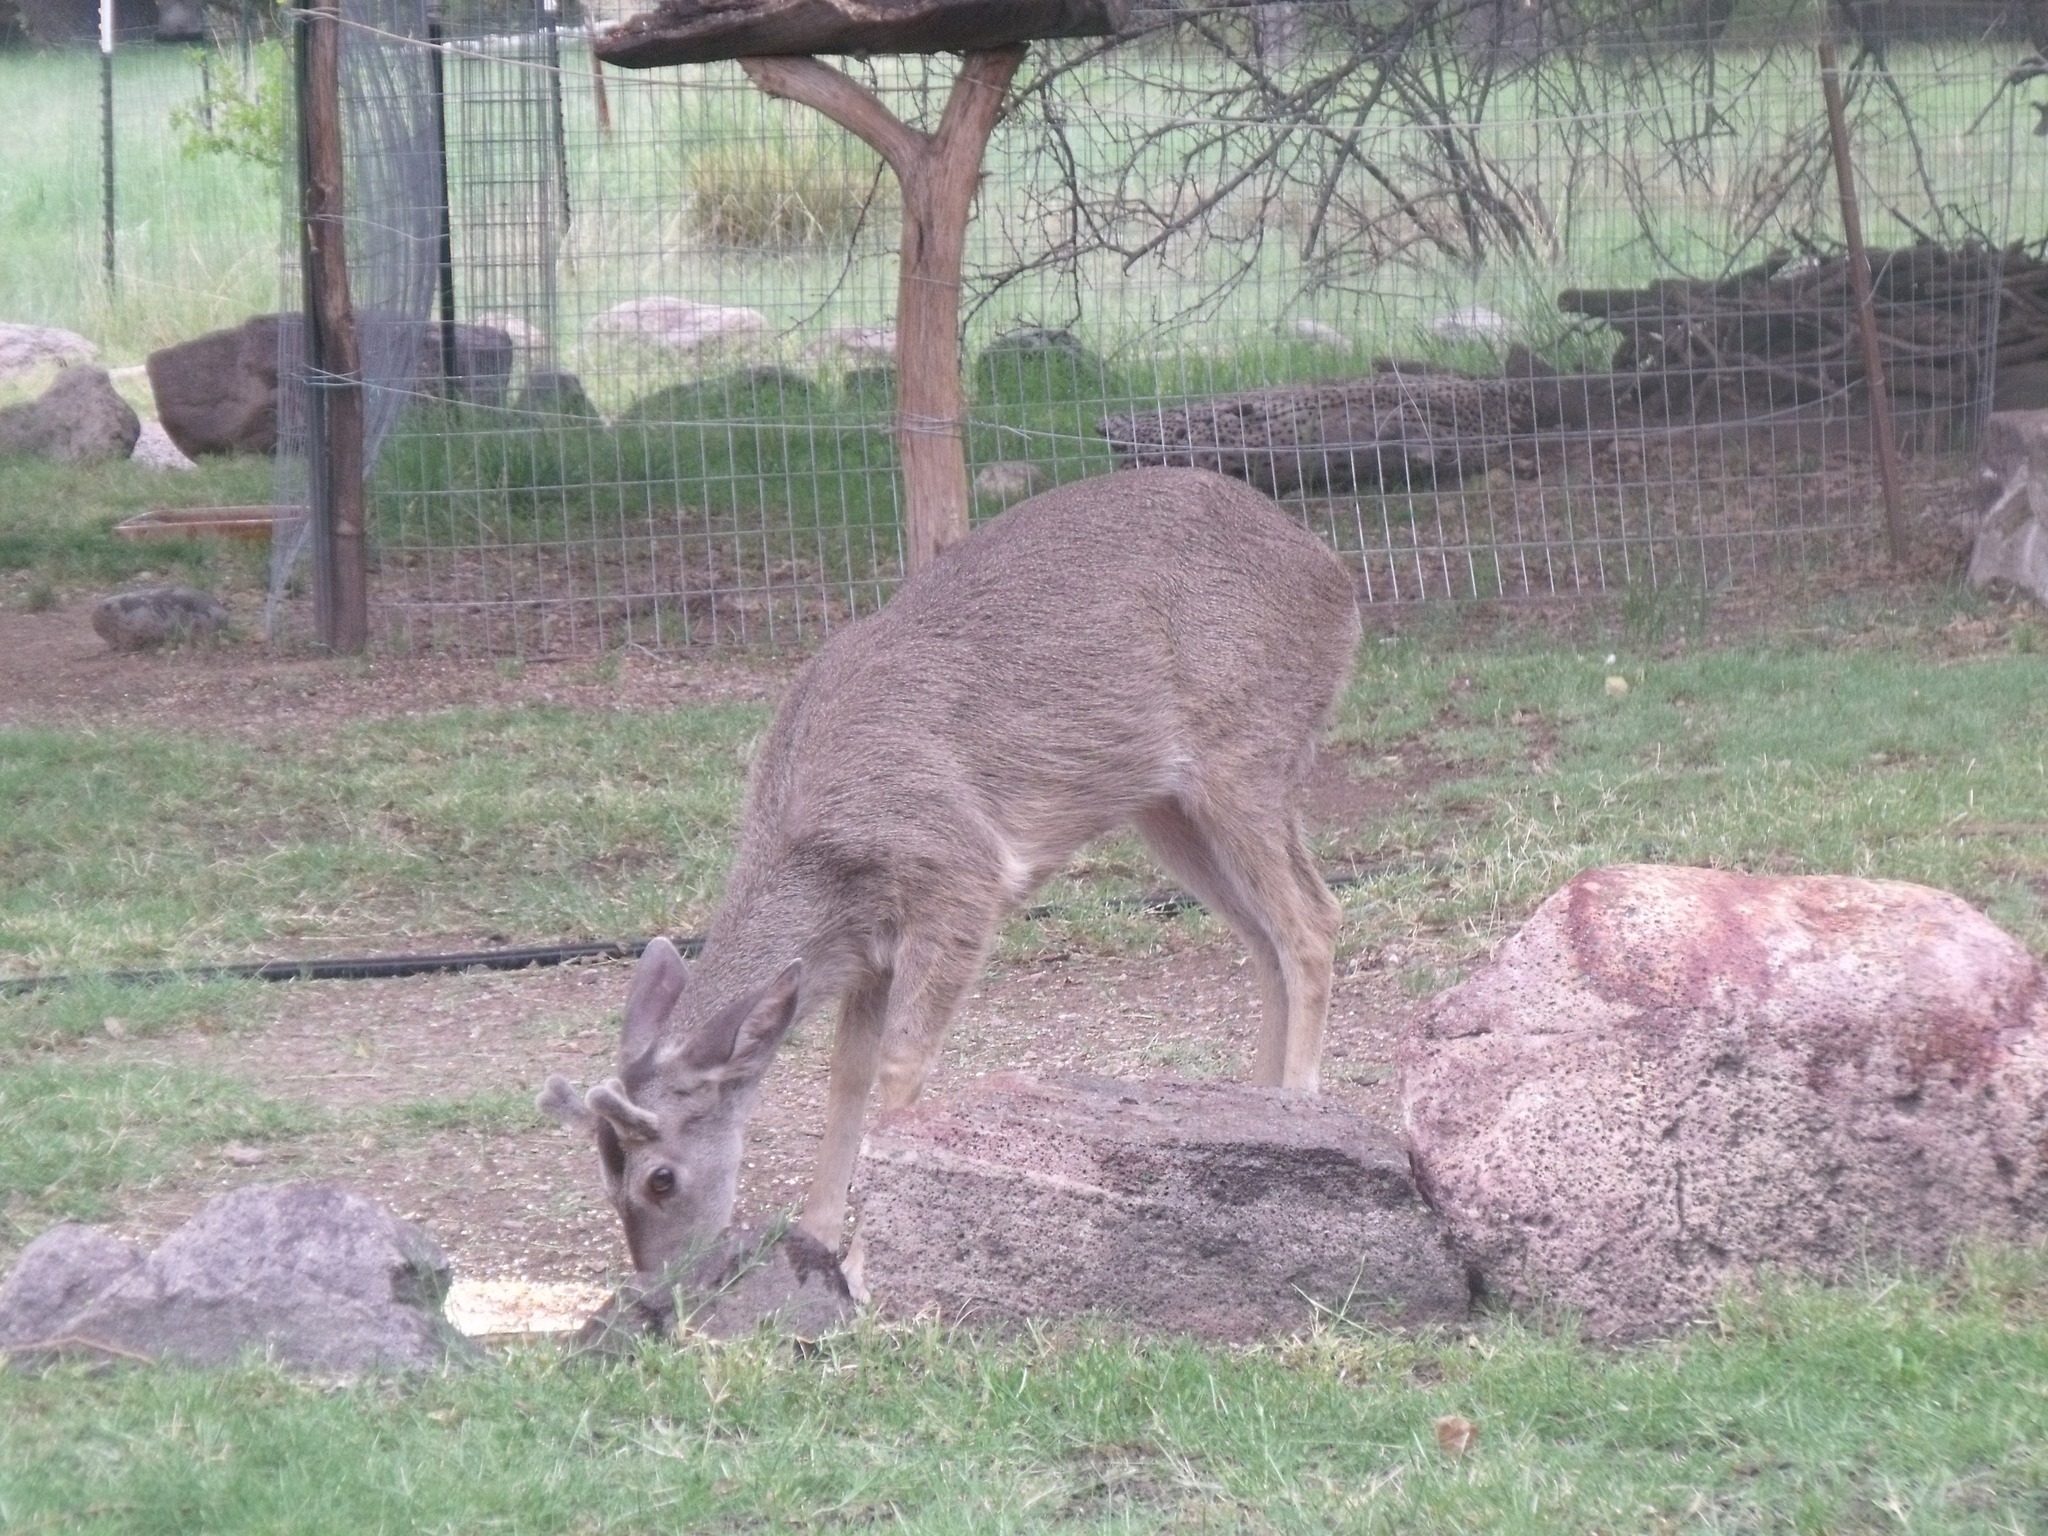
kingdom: Animalia
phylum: Chordata
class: Mammalia
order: Artiodactyla
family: Cervidae
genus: Odocoileus
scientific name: Odocoileus virginianus
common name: White-tailed deer
